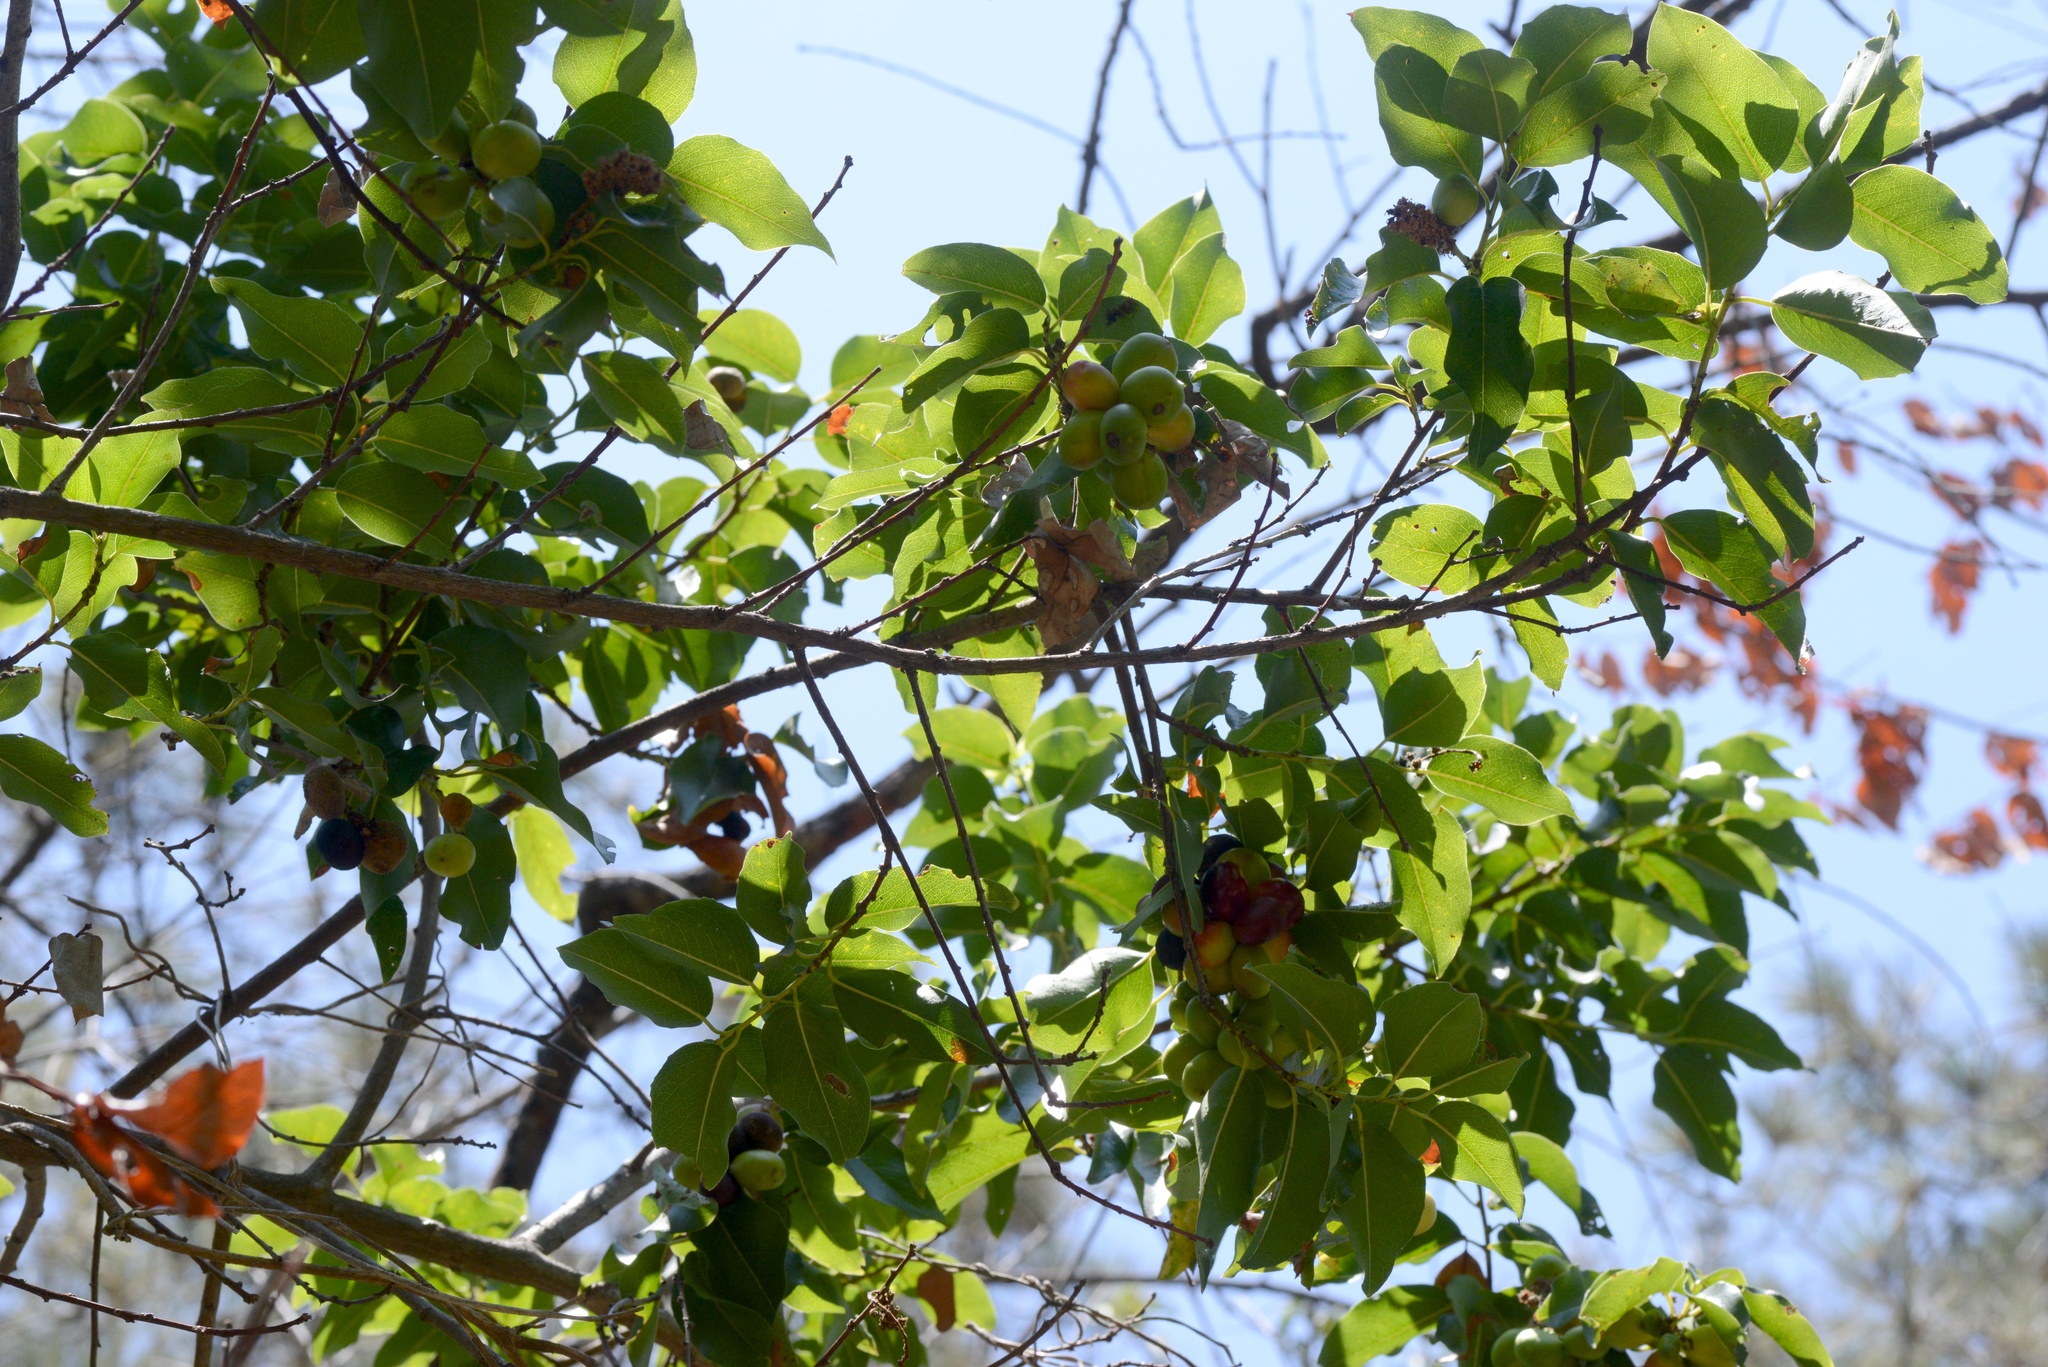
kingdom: Plantae
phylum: Tracheophyta
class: Magnoliopsida
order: Rosales
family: Rosaceae
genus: Prunus
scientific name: Prunus ilicifolia
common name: Hollyleaf cherry
